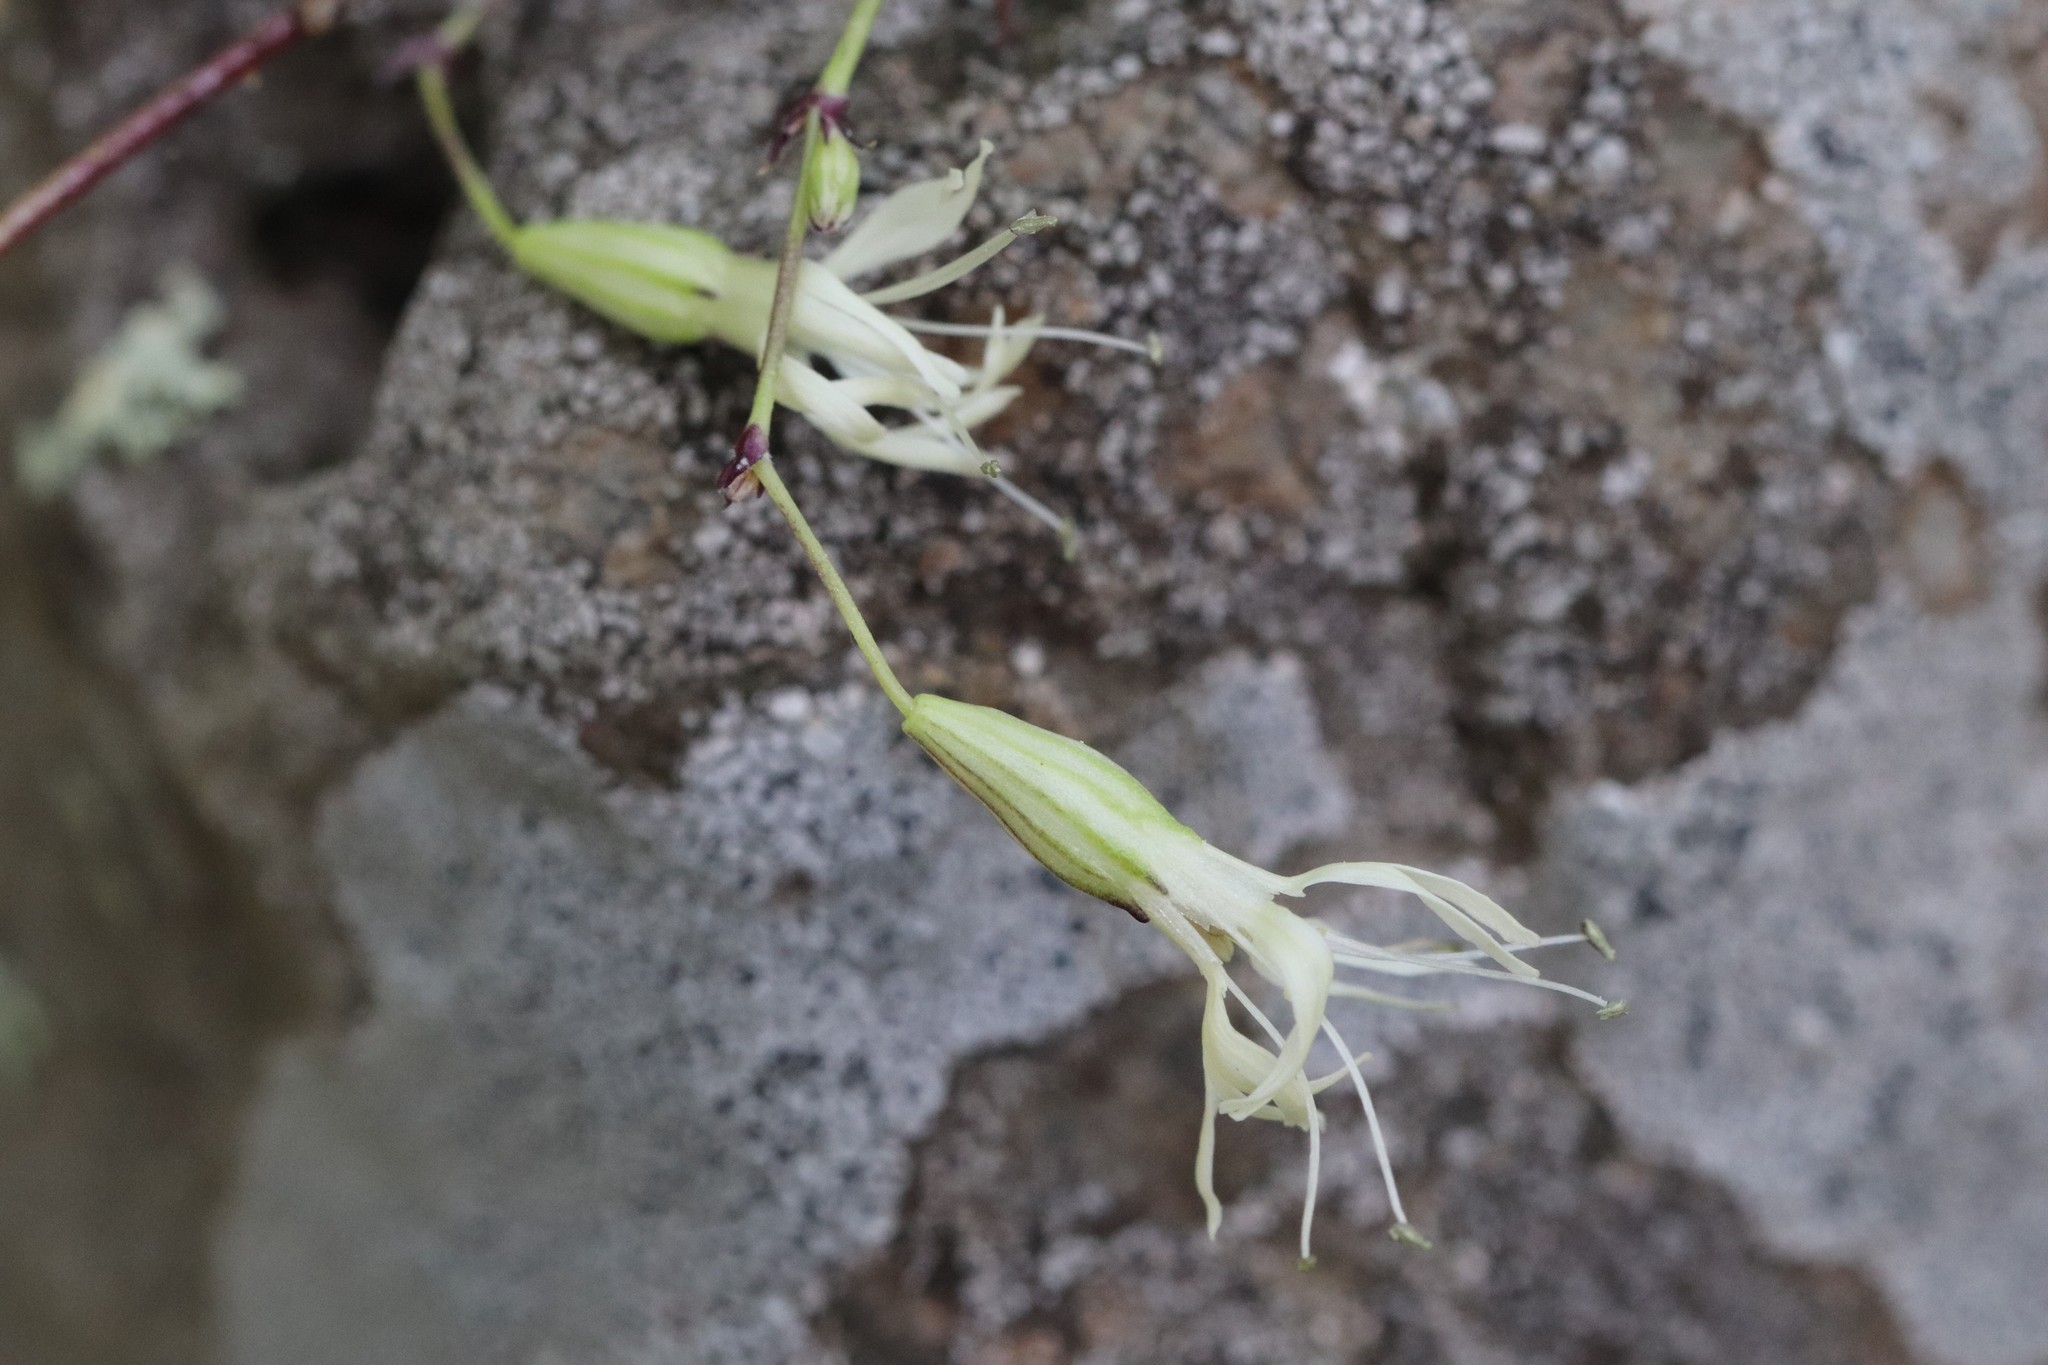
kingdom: Plantae
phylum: Tracheophyta
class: Magnoliopsida
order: Caryophyllales
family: Caryophyllaceae
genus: Silene
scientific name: Silene foliosa
